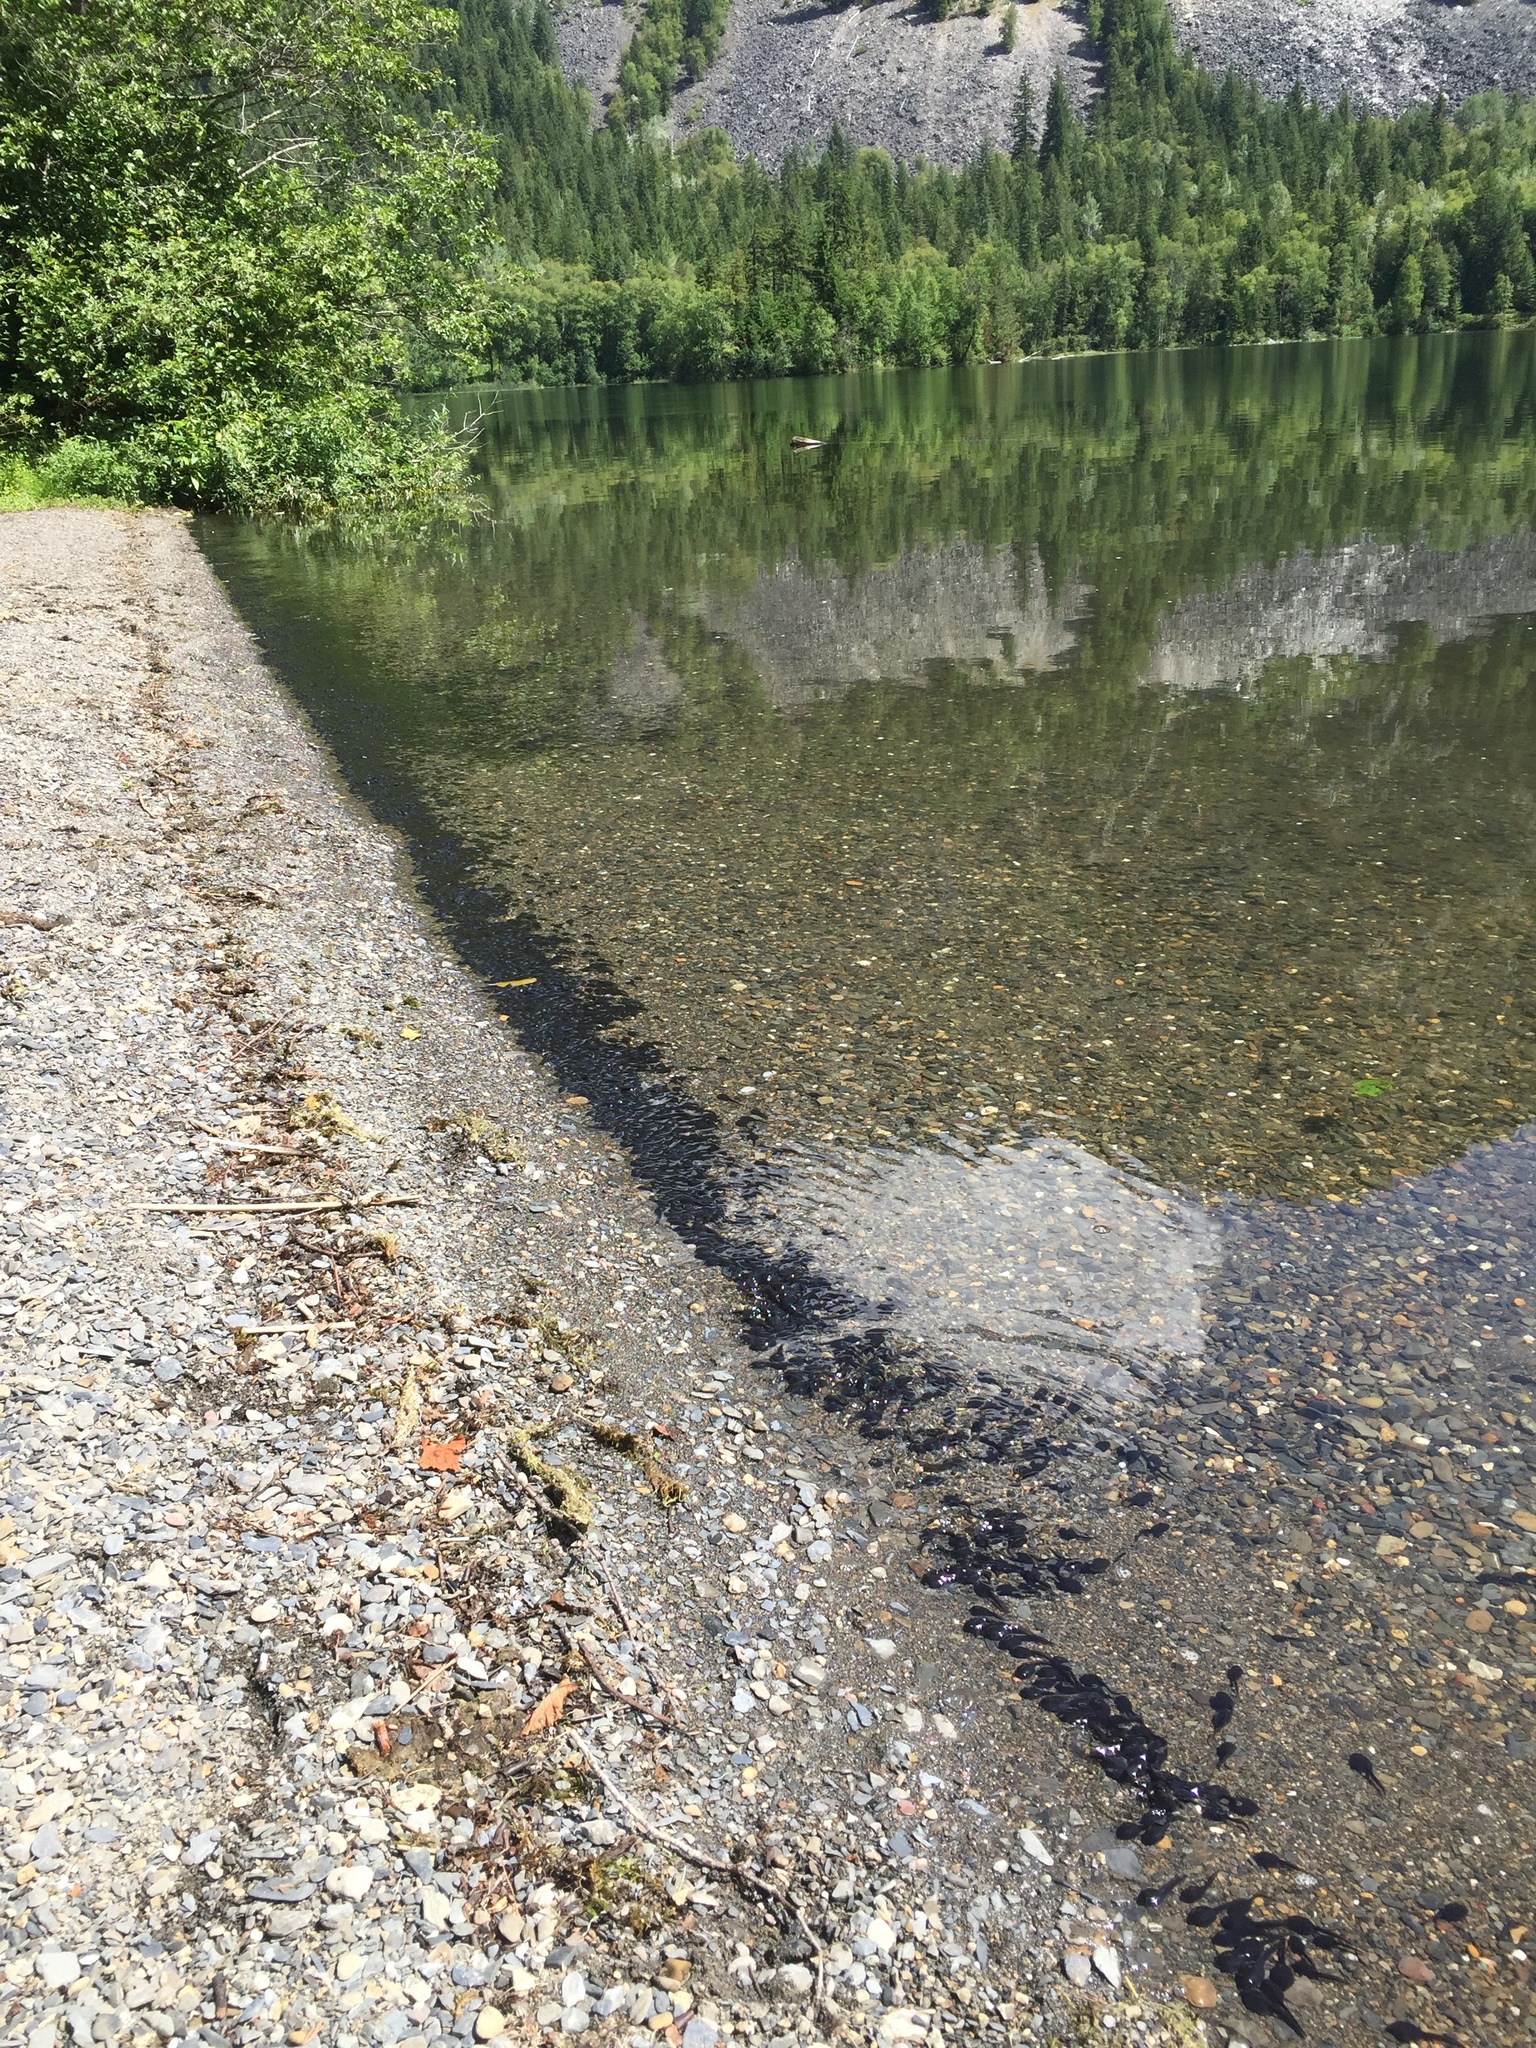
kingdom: Animalia
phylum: Chordata
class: Amphibia
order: Anura
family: Bufonidae
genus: Anaxyrus
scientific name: Anaxyrus boreas
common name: Western toad
